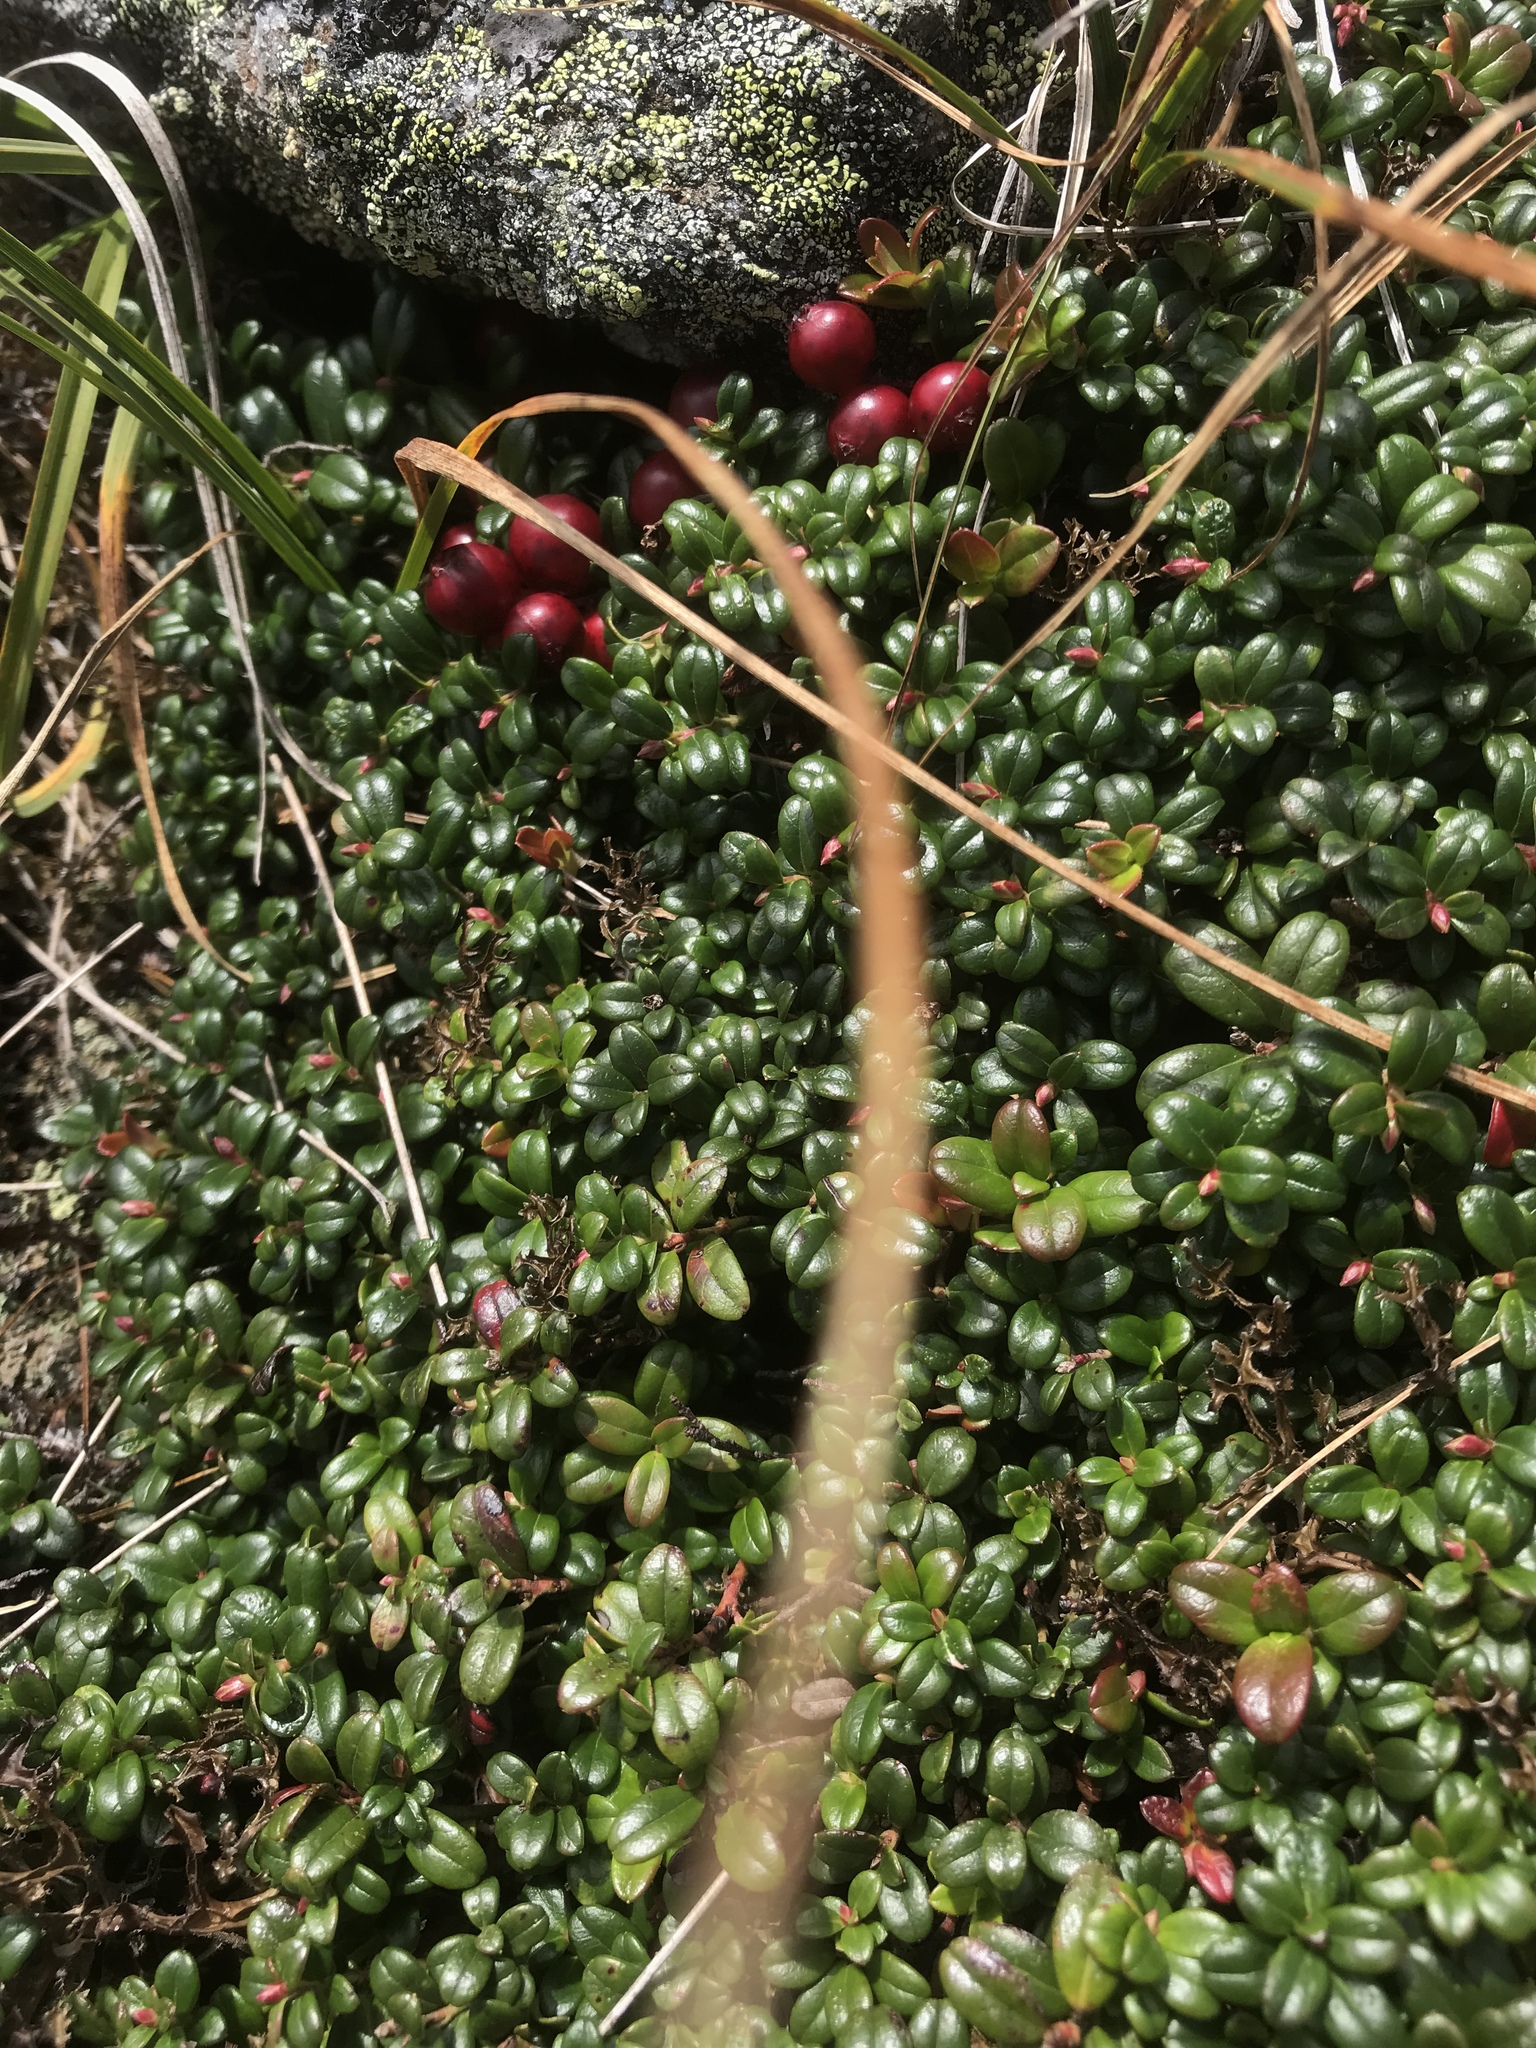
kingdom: Plantae
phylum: Tracheophyta
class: Magnoliopsida
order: Ericales
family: Ericaceae
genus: Vaccinium
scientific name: Vaccinium vitis-idaea
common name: Cowberry
